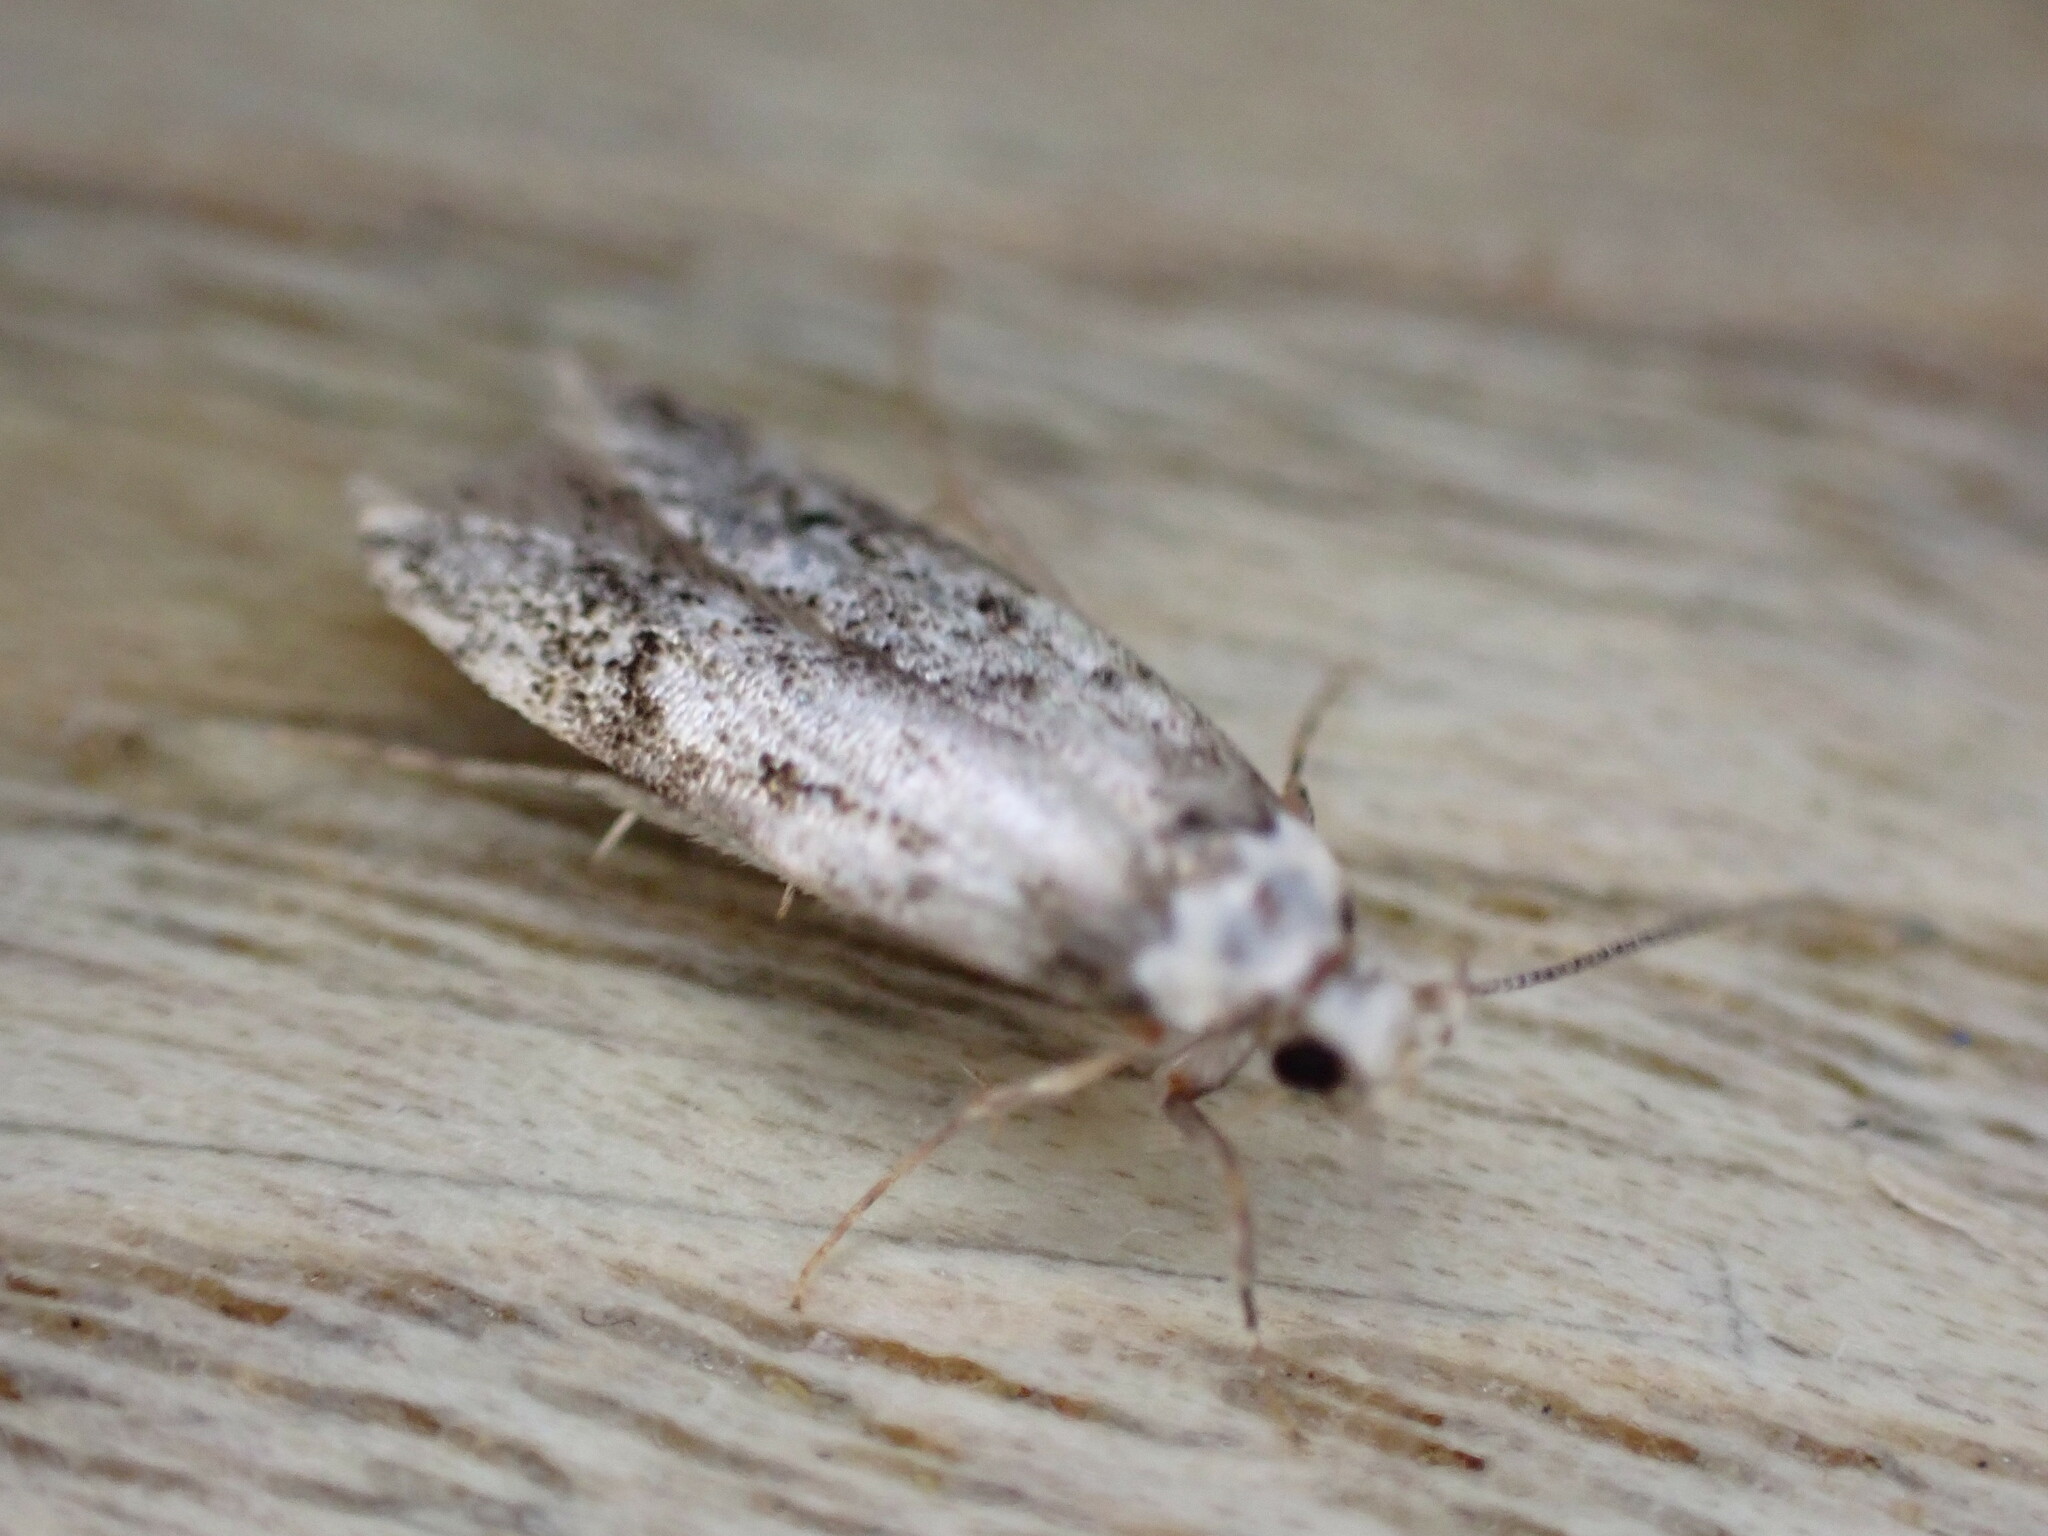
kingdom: Animalia
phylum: Arthropoda
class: Insecta
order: Lepidoptera
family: Oecophoridae
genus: Endrosis
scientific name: Endrosis sarcitrella
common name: White-shouldered house moth
